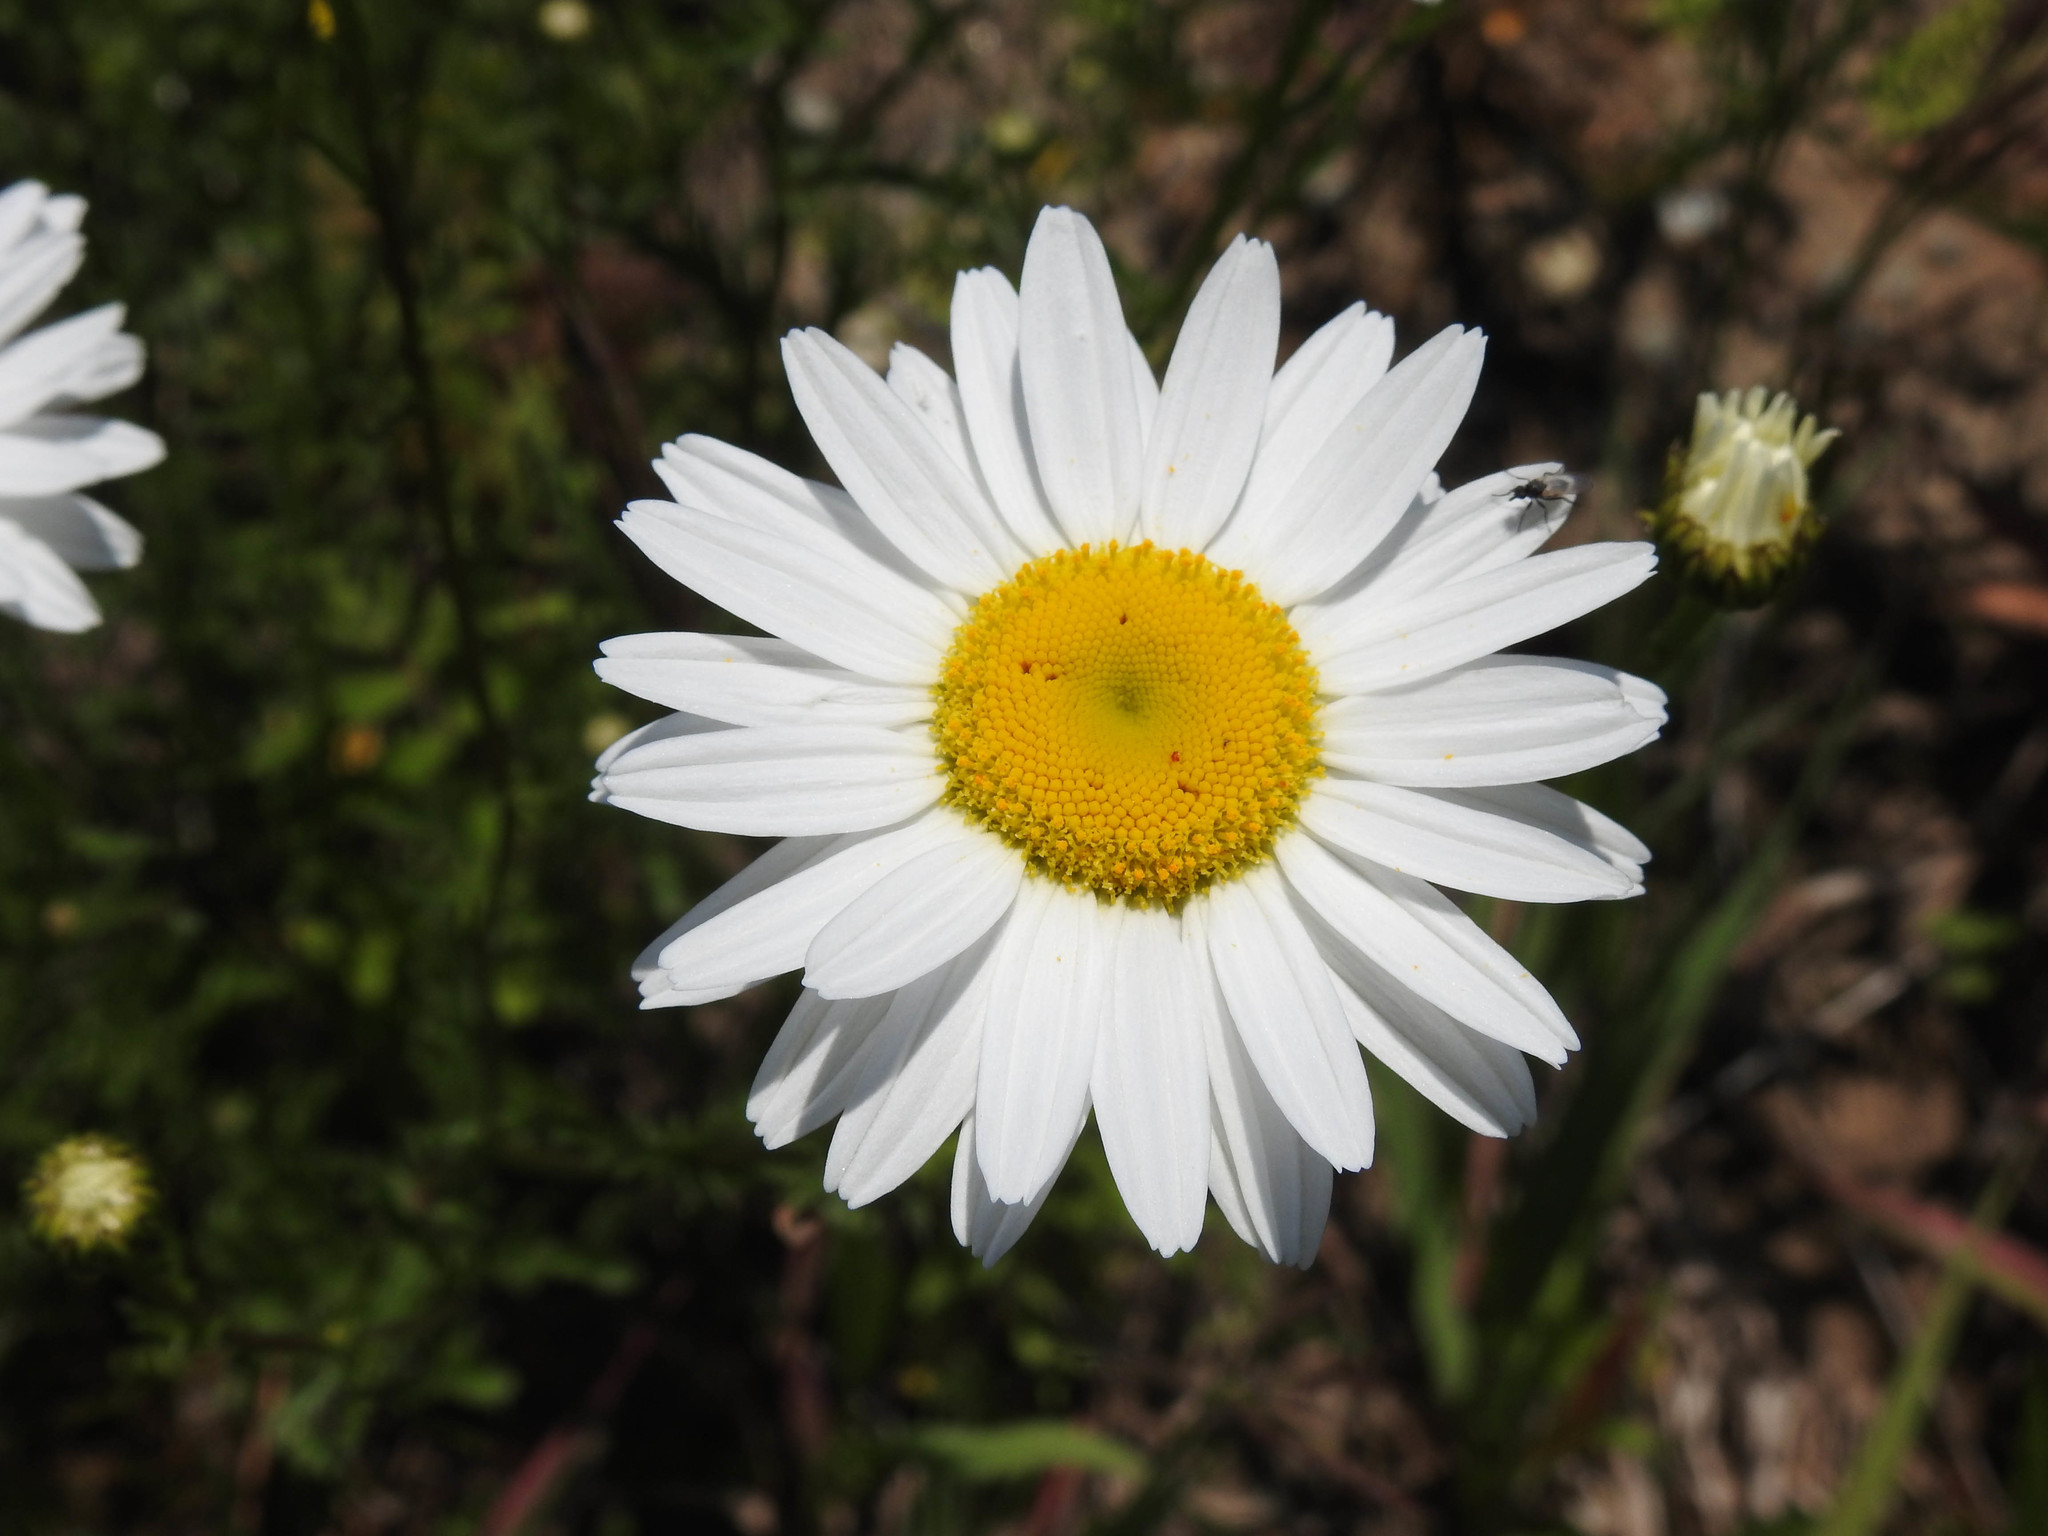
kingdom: Plantae
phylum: Tracheophyta
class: Magnoliopsida
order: Asterales
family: Asteraceae
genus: Leucanthemum
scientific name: Leucanthemum vulgare
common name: Oxeye daisy
